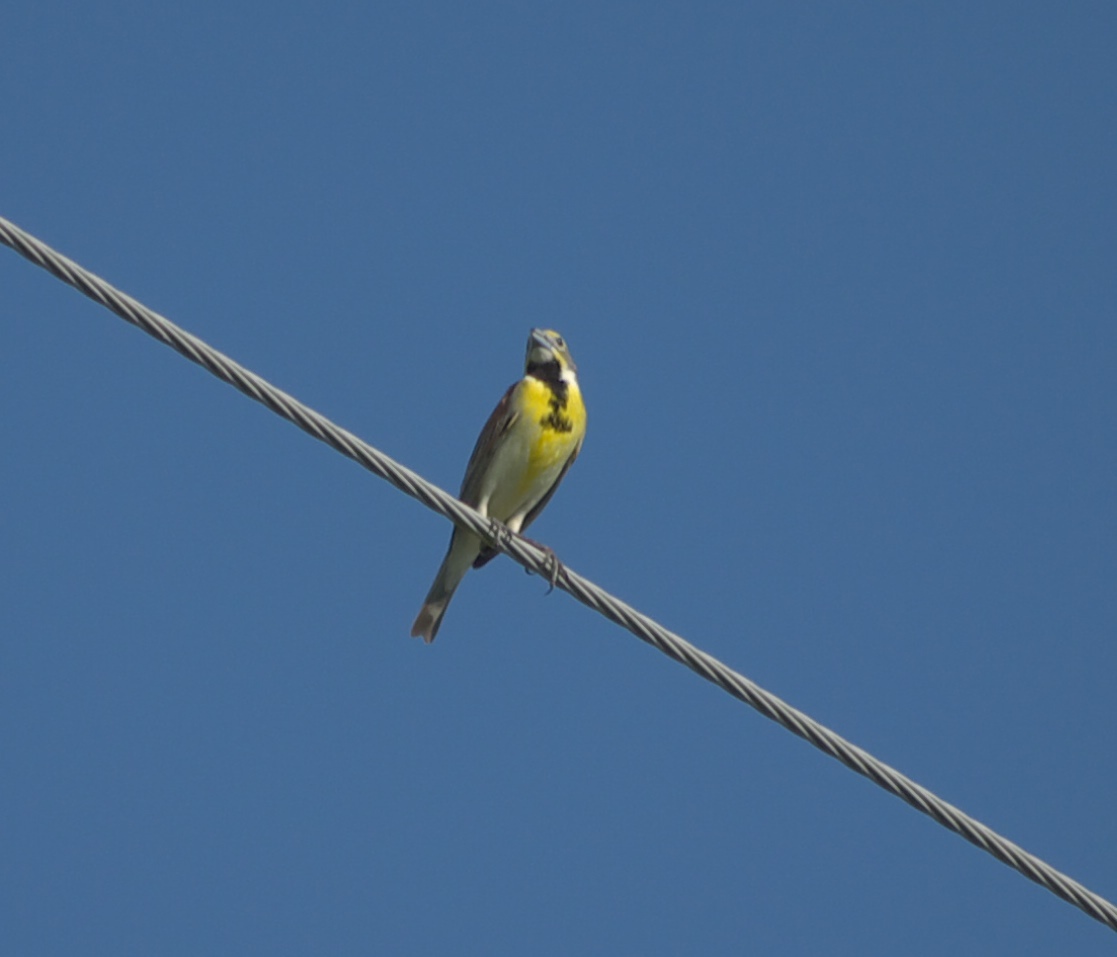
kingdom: Animalia
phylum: Chordata
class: Aves
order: Passeriformes
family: Cardinalidae
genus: Spiza
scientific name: Spiza americana
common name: Dickcissel
